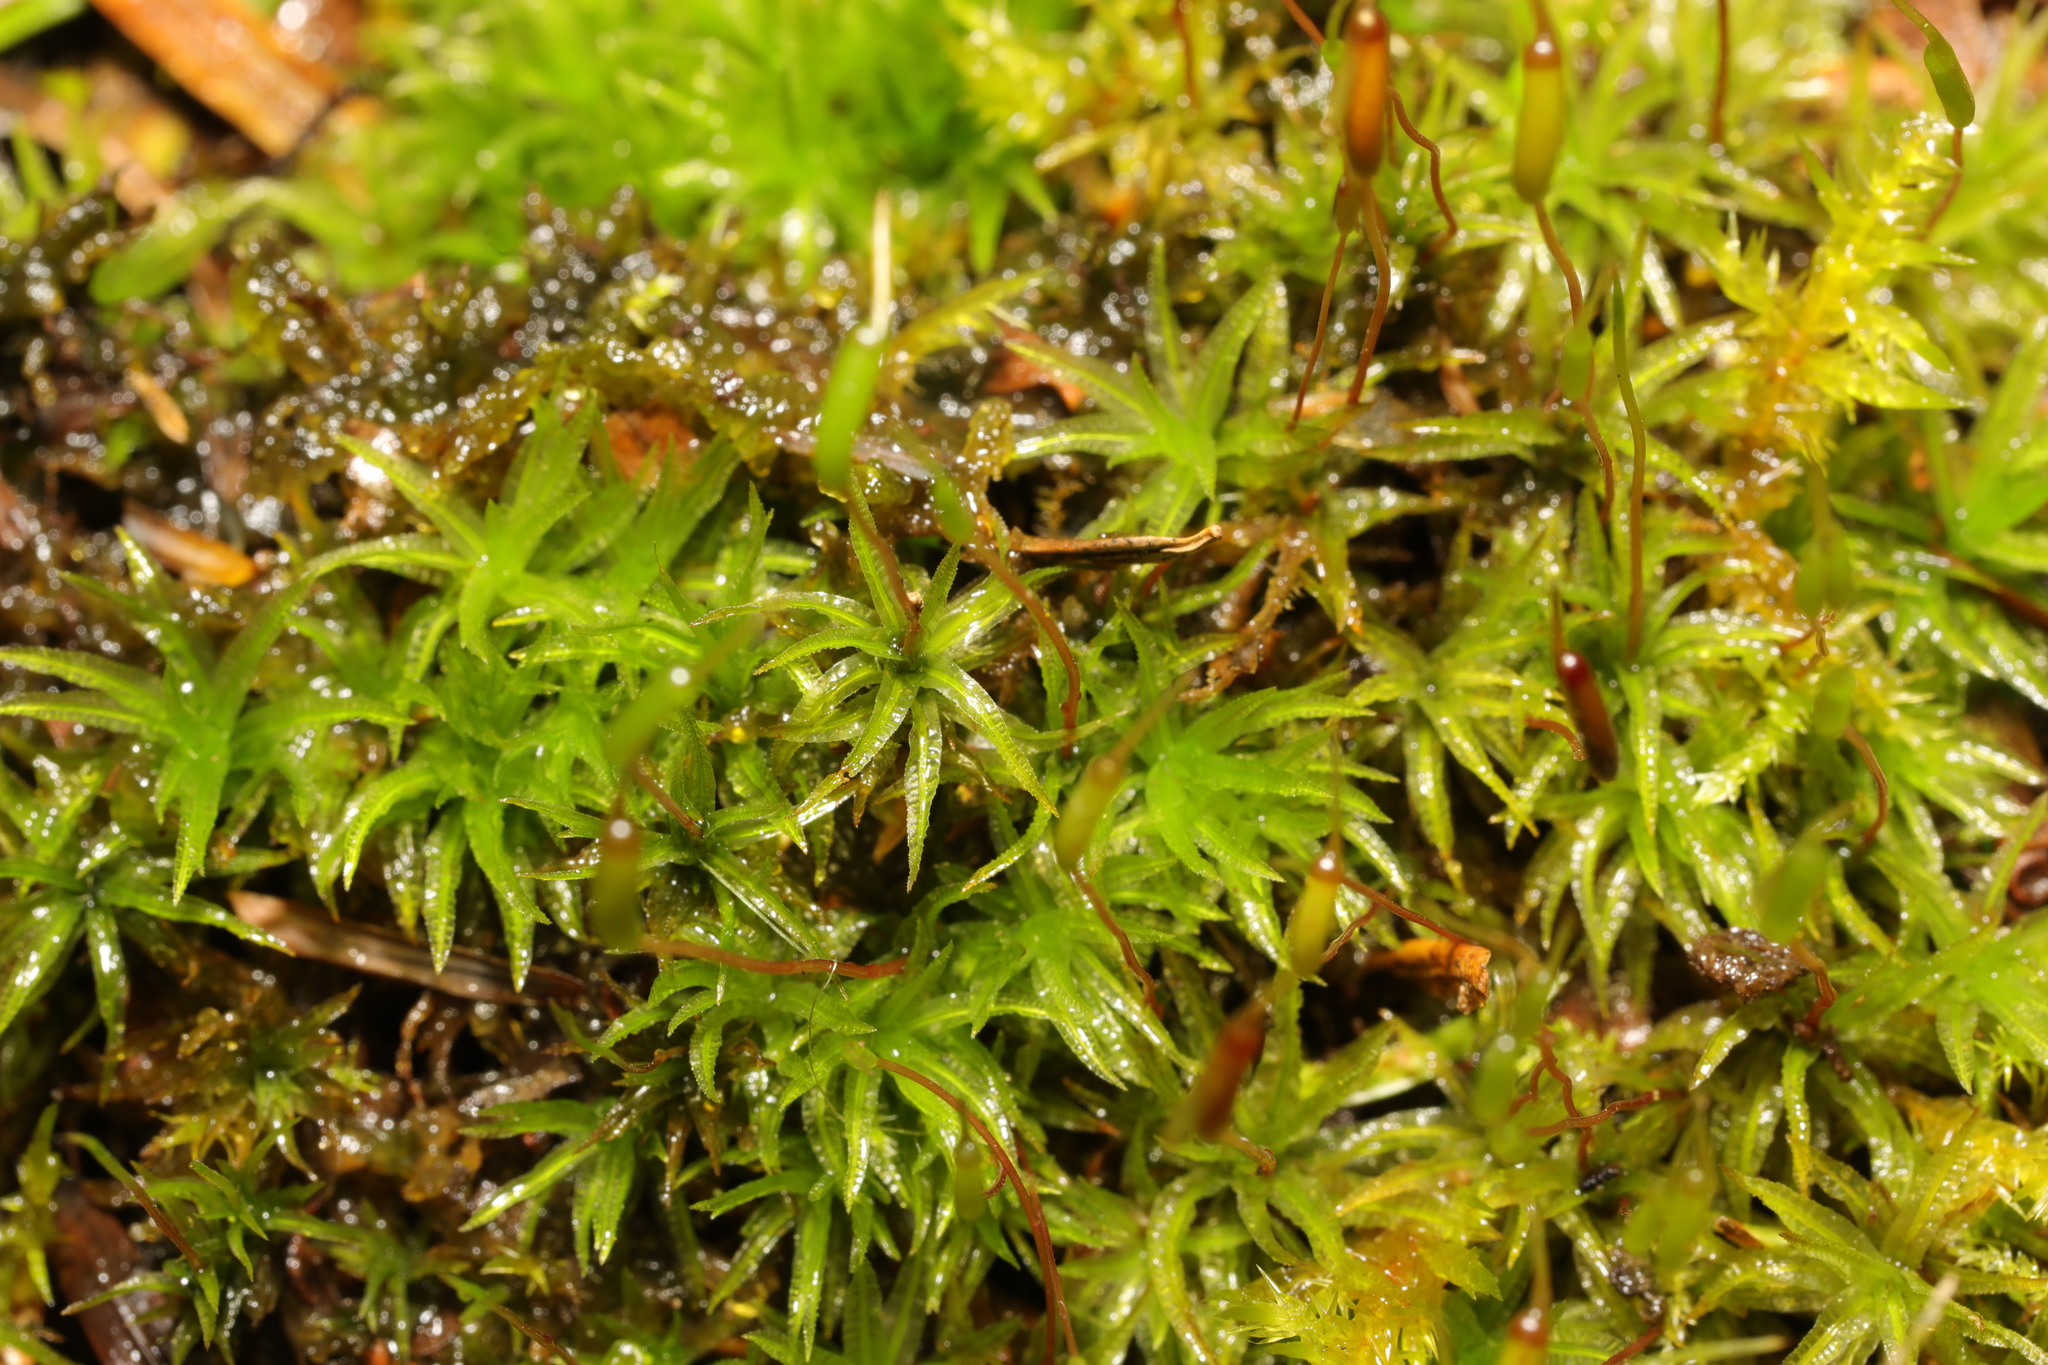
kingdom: Plantae
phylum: Bryophyta
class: Polytrichopsida
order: Polytrichales
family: Polytrichaceae
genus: Atrichum
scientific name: Atrichum undulatum
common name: Common smoothcap
